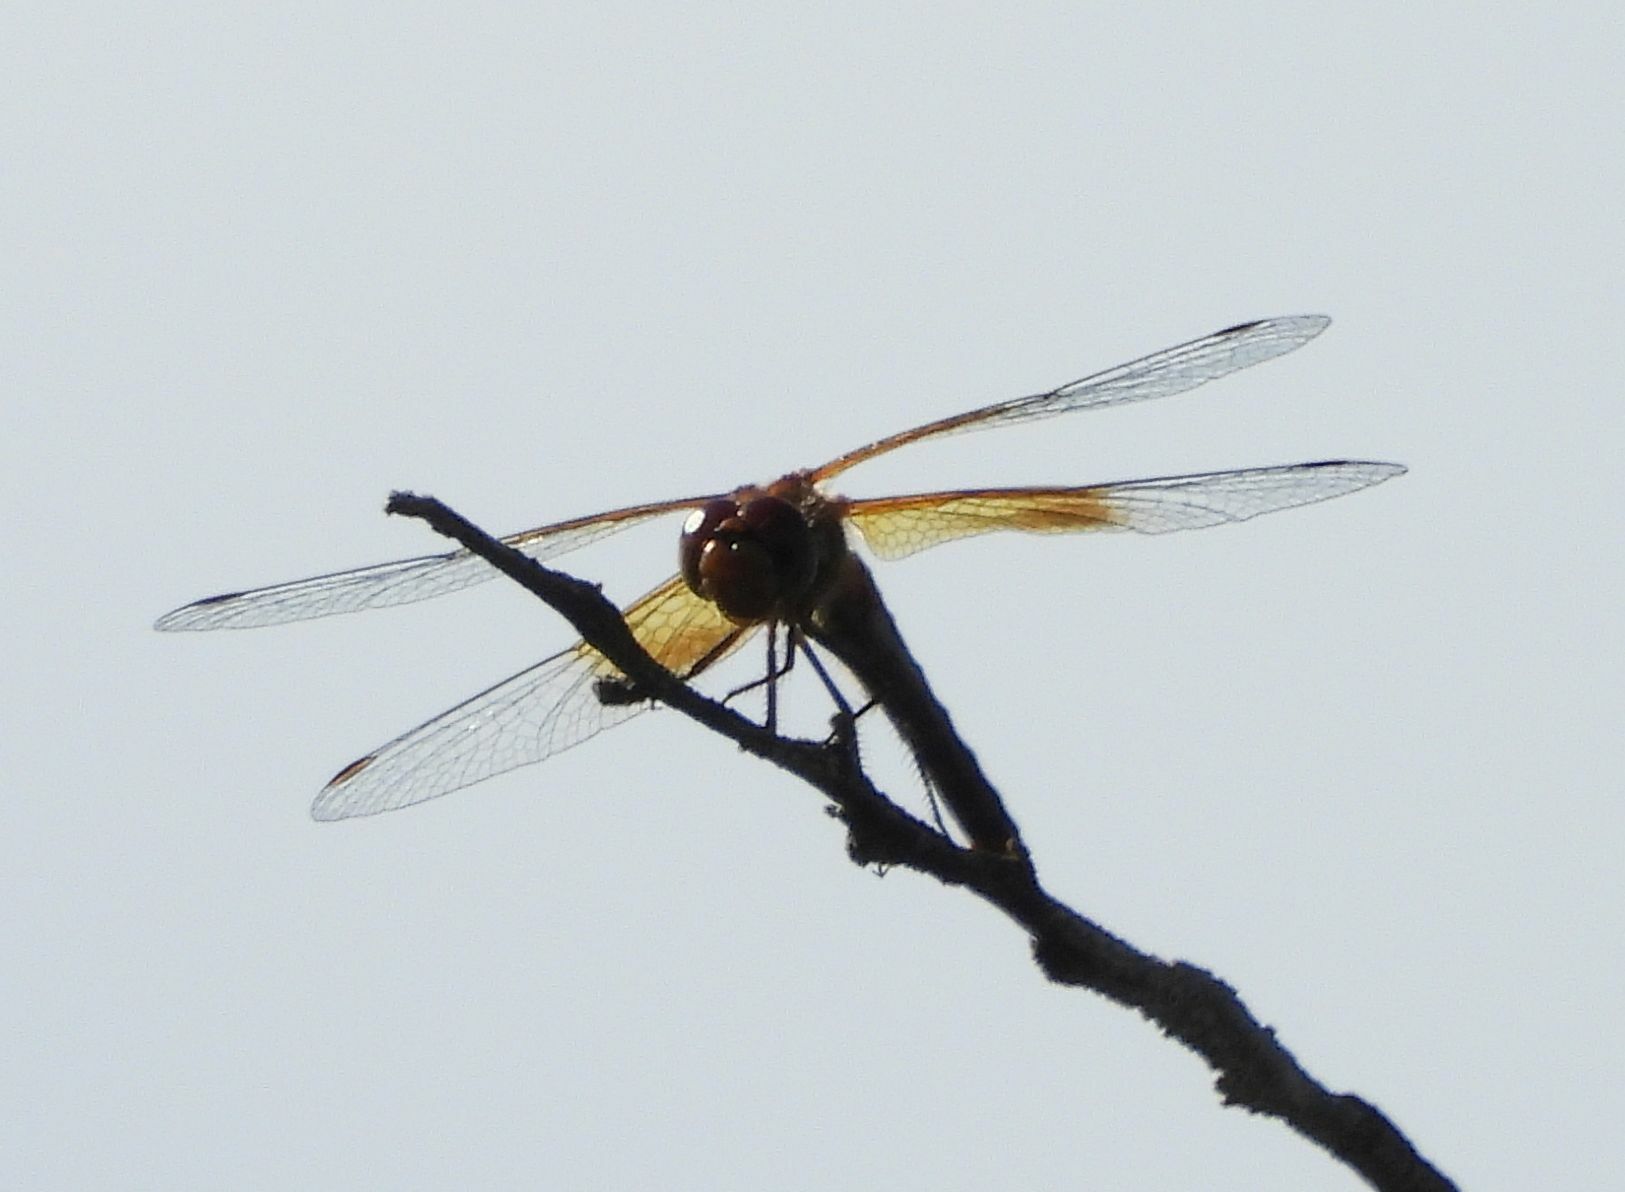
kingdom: Animalia
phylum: Arthropoda
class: Insecta
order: Odonata
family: Libellulidae
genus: Sympetrum
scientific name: Sympetrum semicinctum
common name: Band-winged meadowhawk
